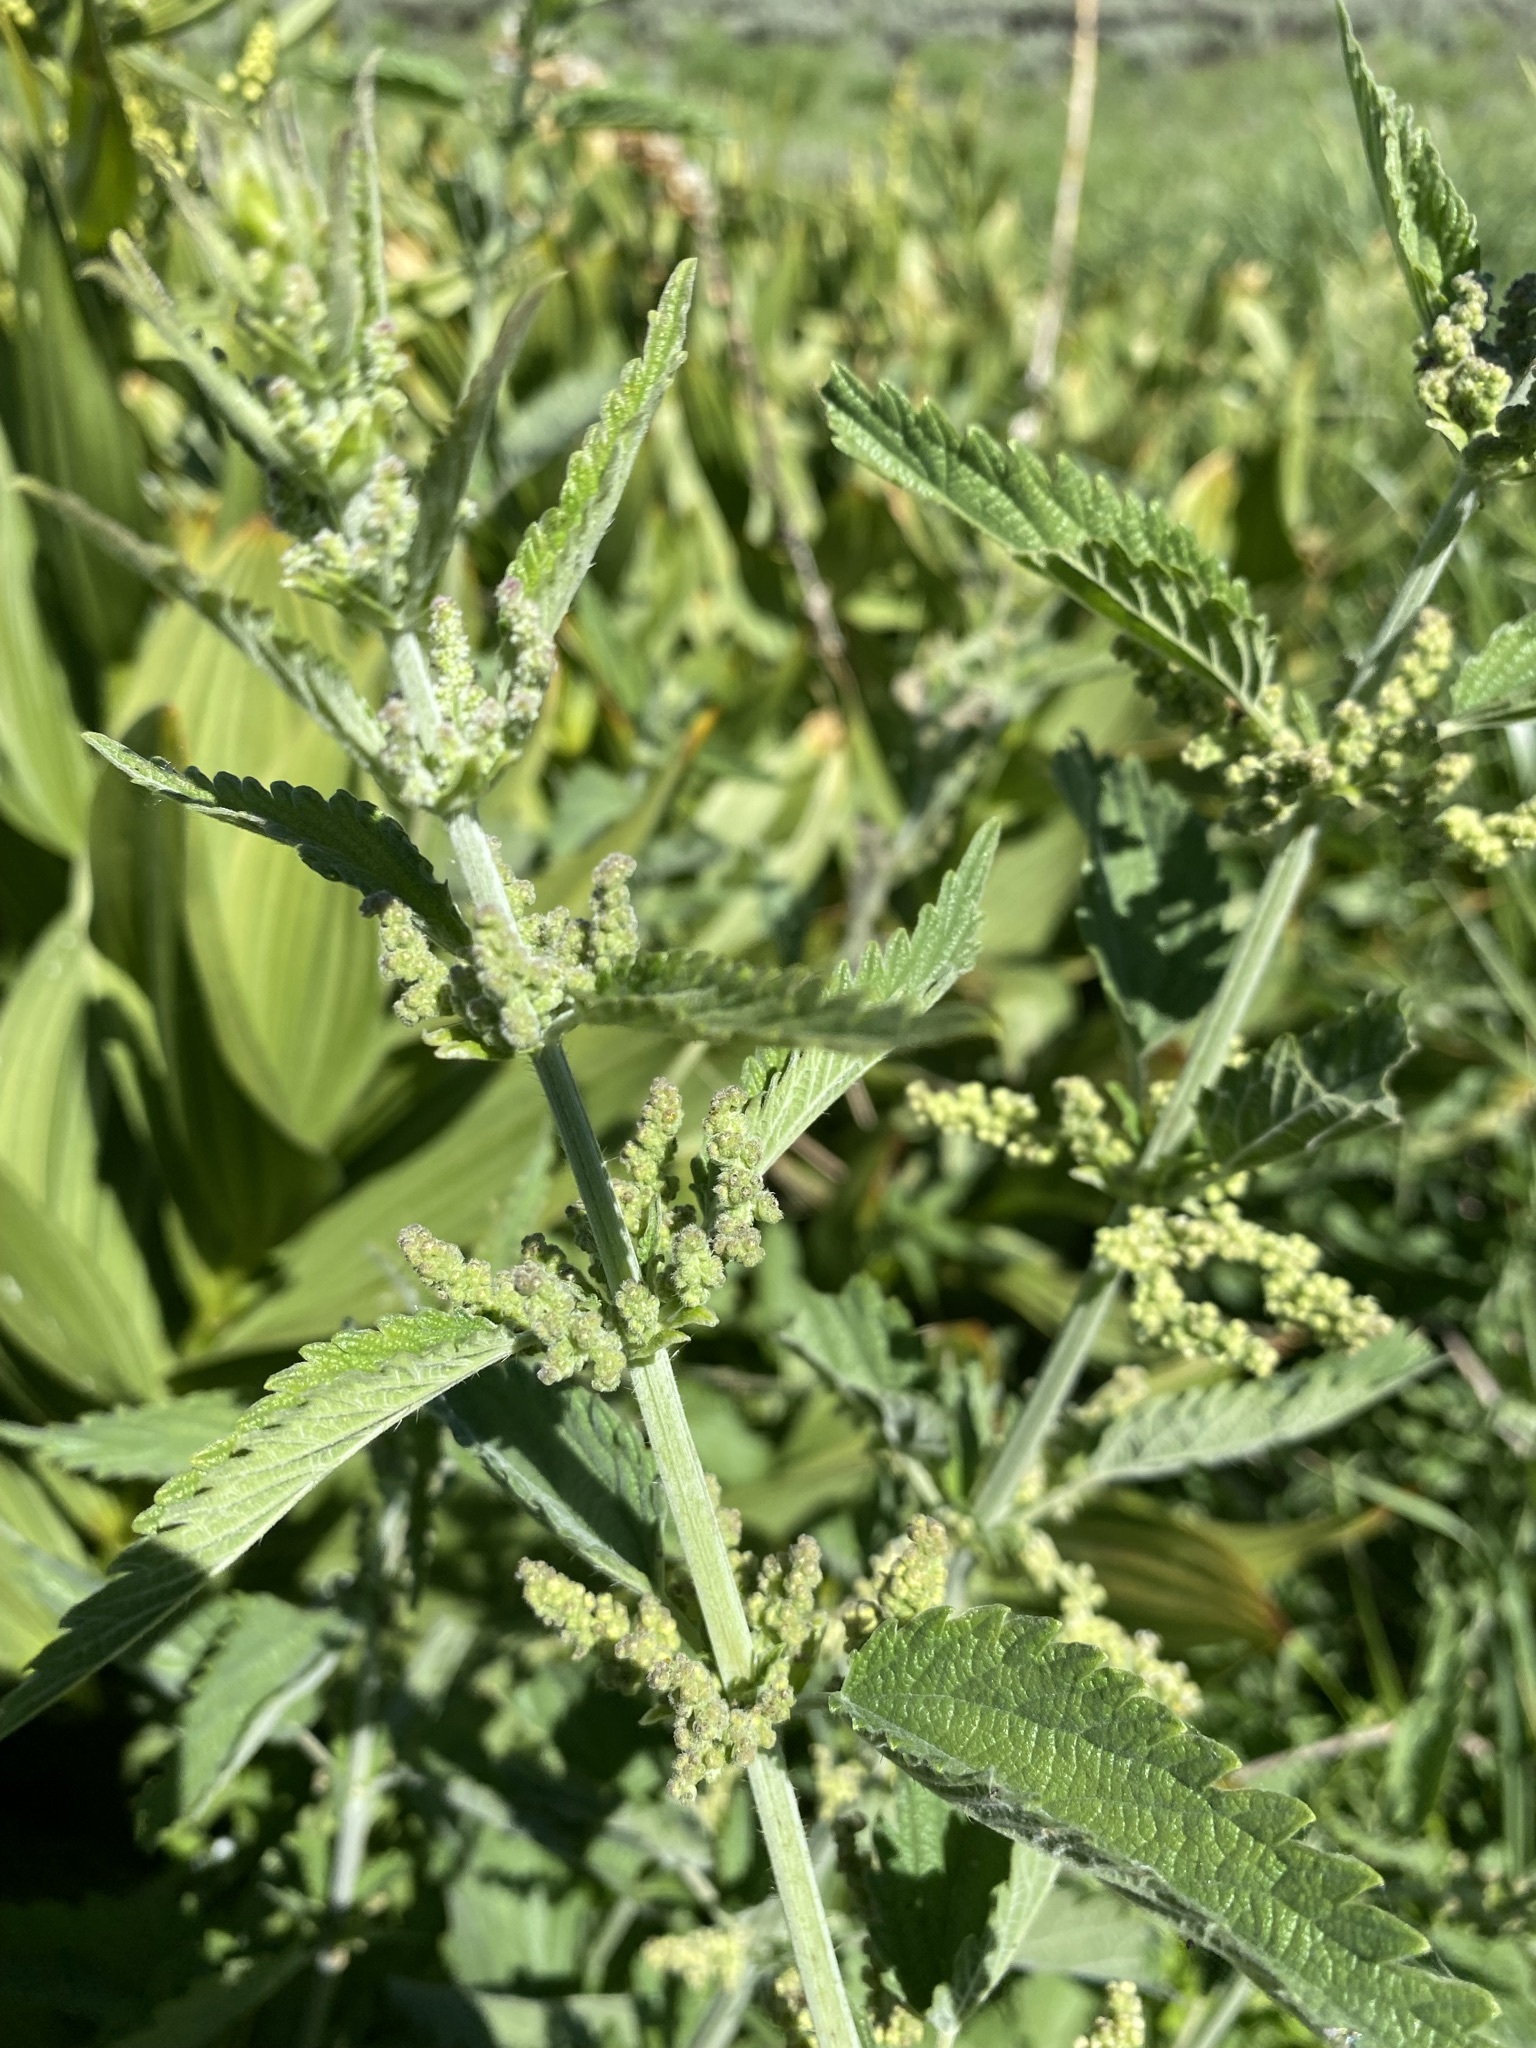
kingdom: Plantae
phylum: Tracheophyta
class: Magnoliopsida
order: Rosales
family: Urticaceae
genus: Urtica
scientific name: Urtica gracilis
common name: Slender stinging nettle
